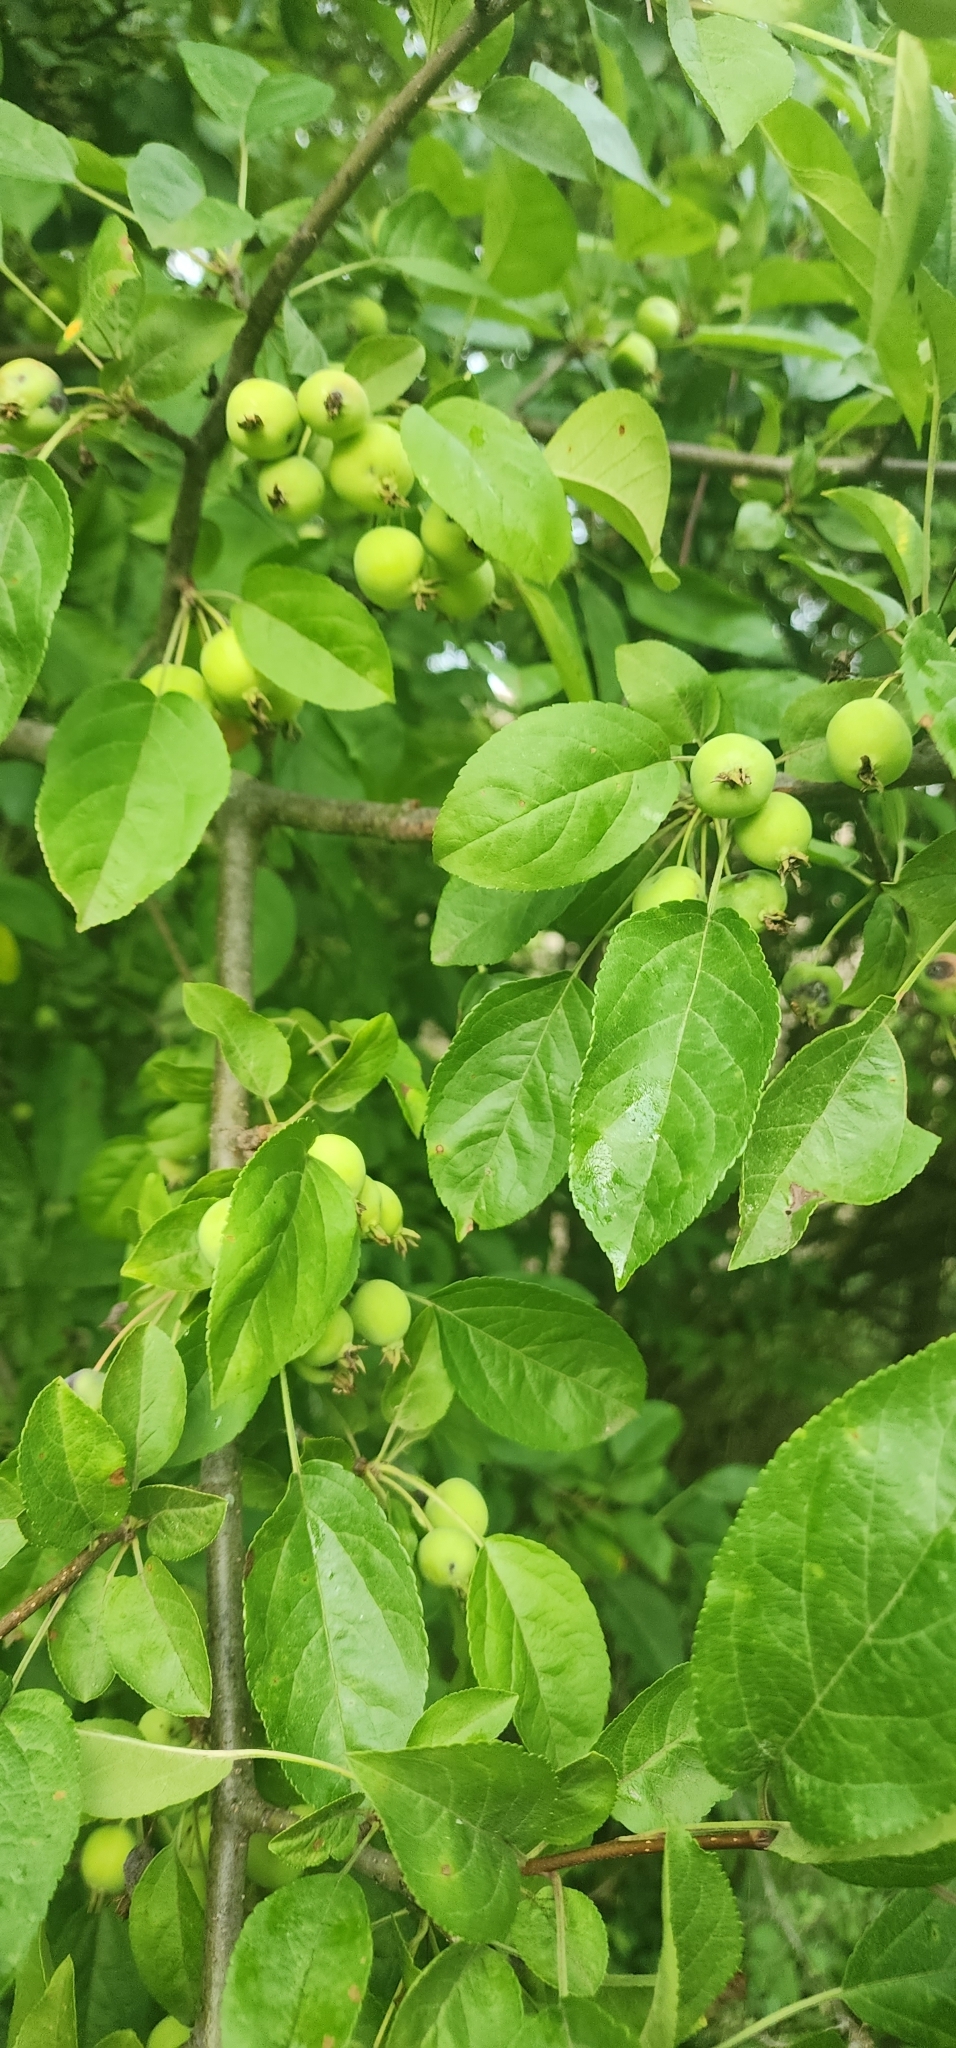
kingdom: Plantae
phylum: Tracheophyta
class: Magnoliopsida
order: Rosales
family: Rosaceae
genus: Malus
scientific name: Malus domestica
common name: Apple
